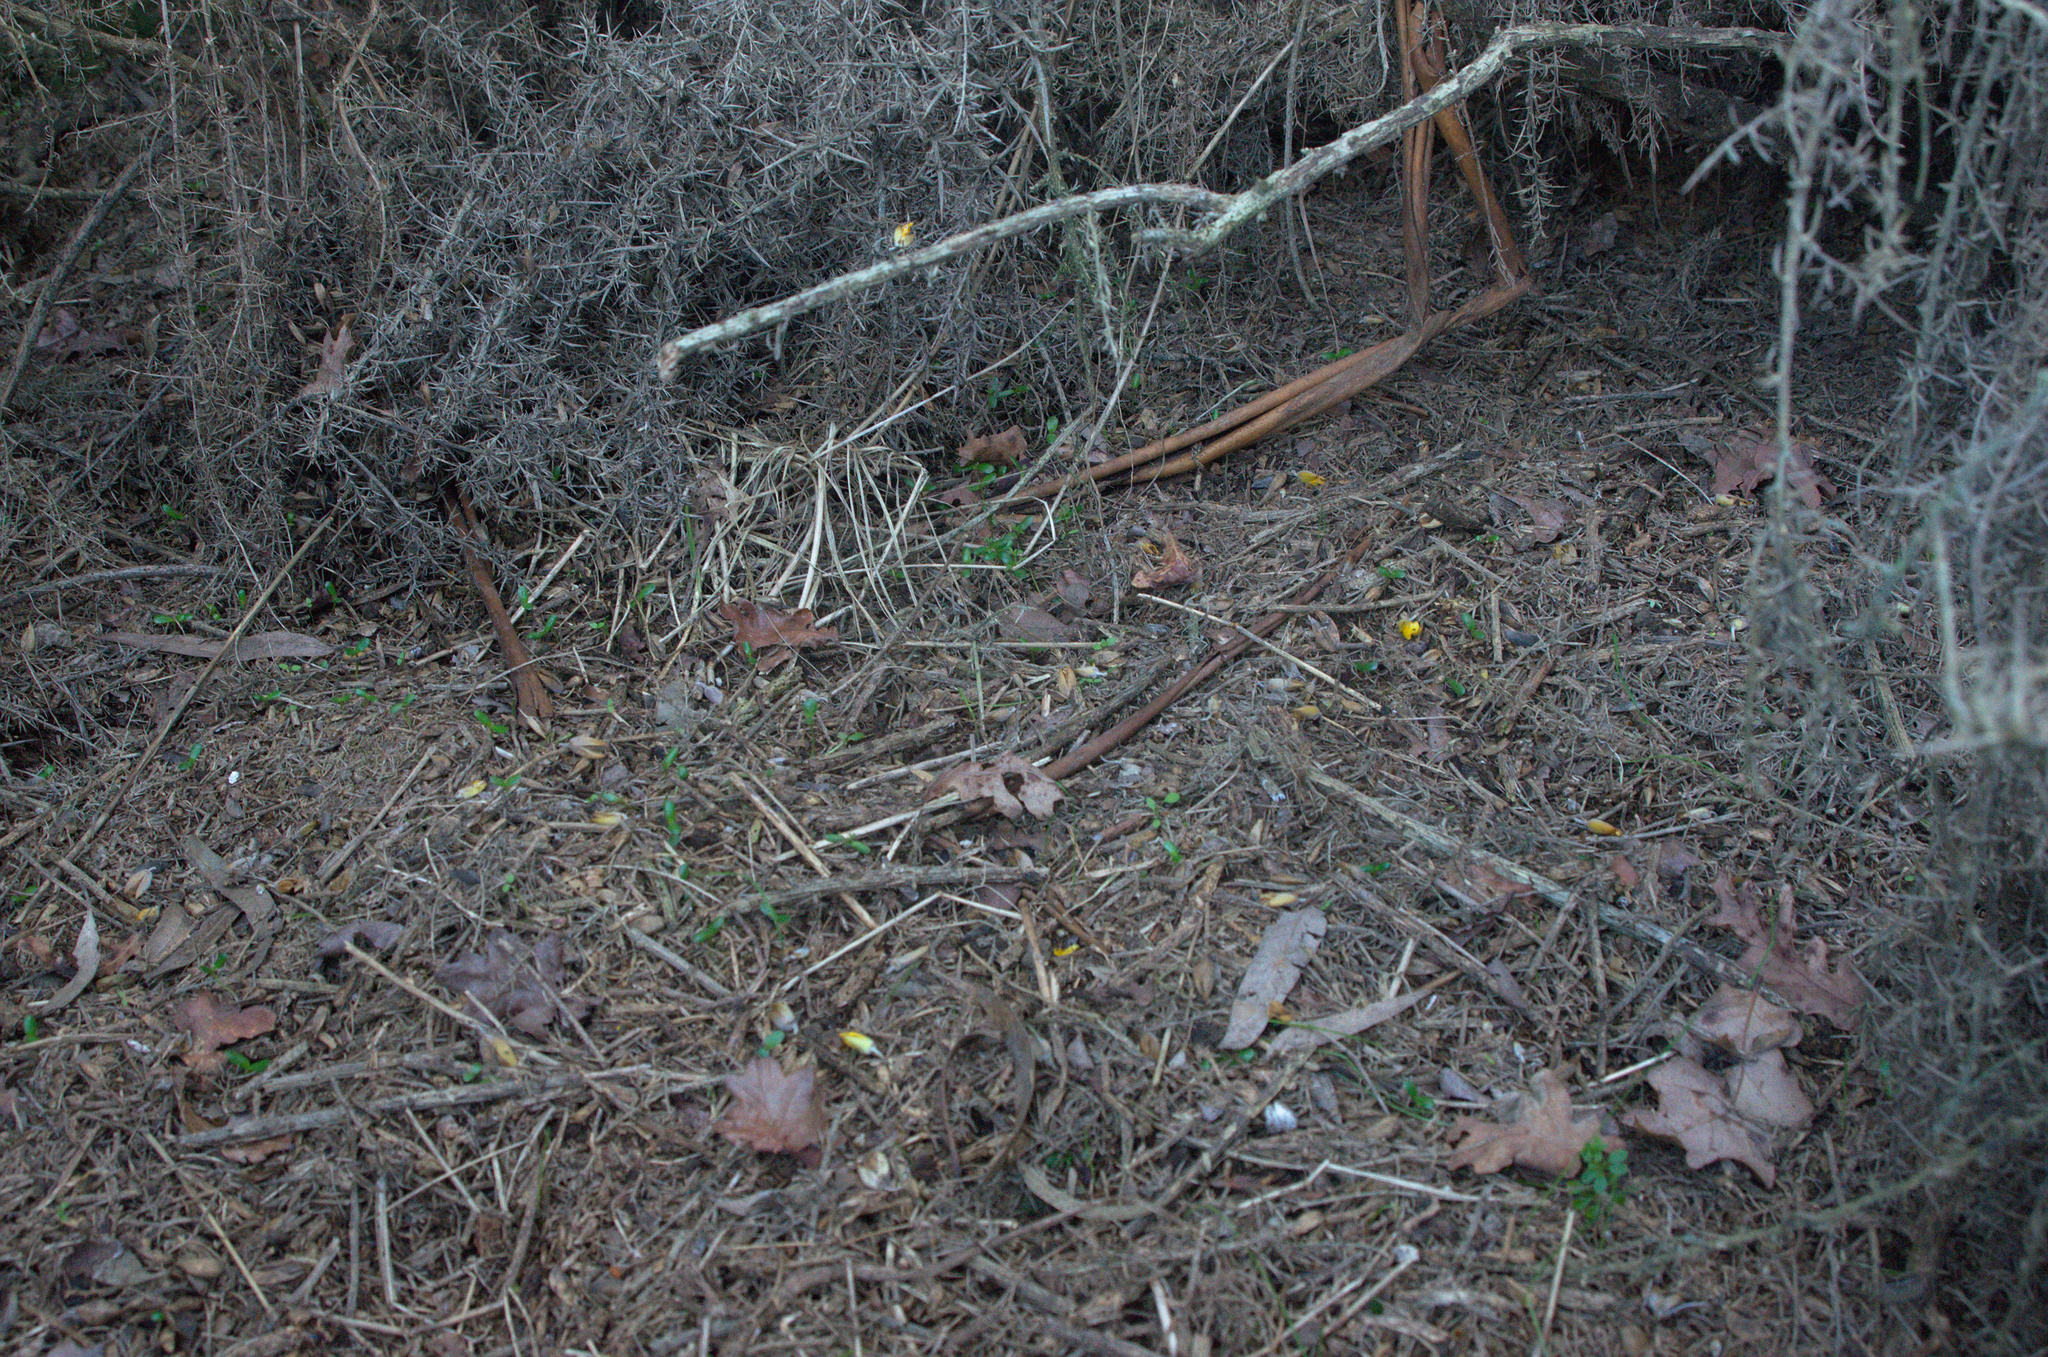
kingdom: Plantae
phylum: Tracheophyta
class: Magnoliopsida
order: Fabales
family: Fabaceae
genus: Ulex
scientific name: Ulex europaeus
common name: Common gorse
